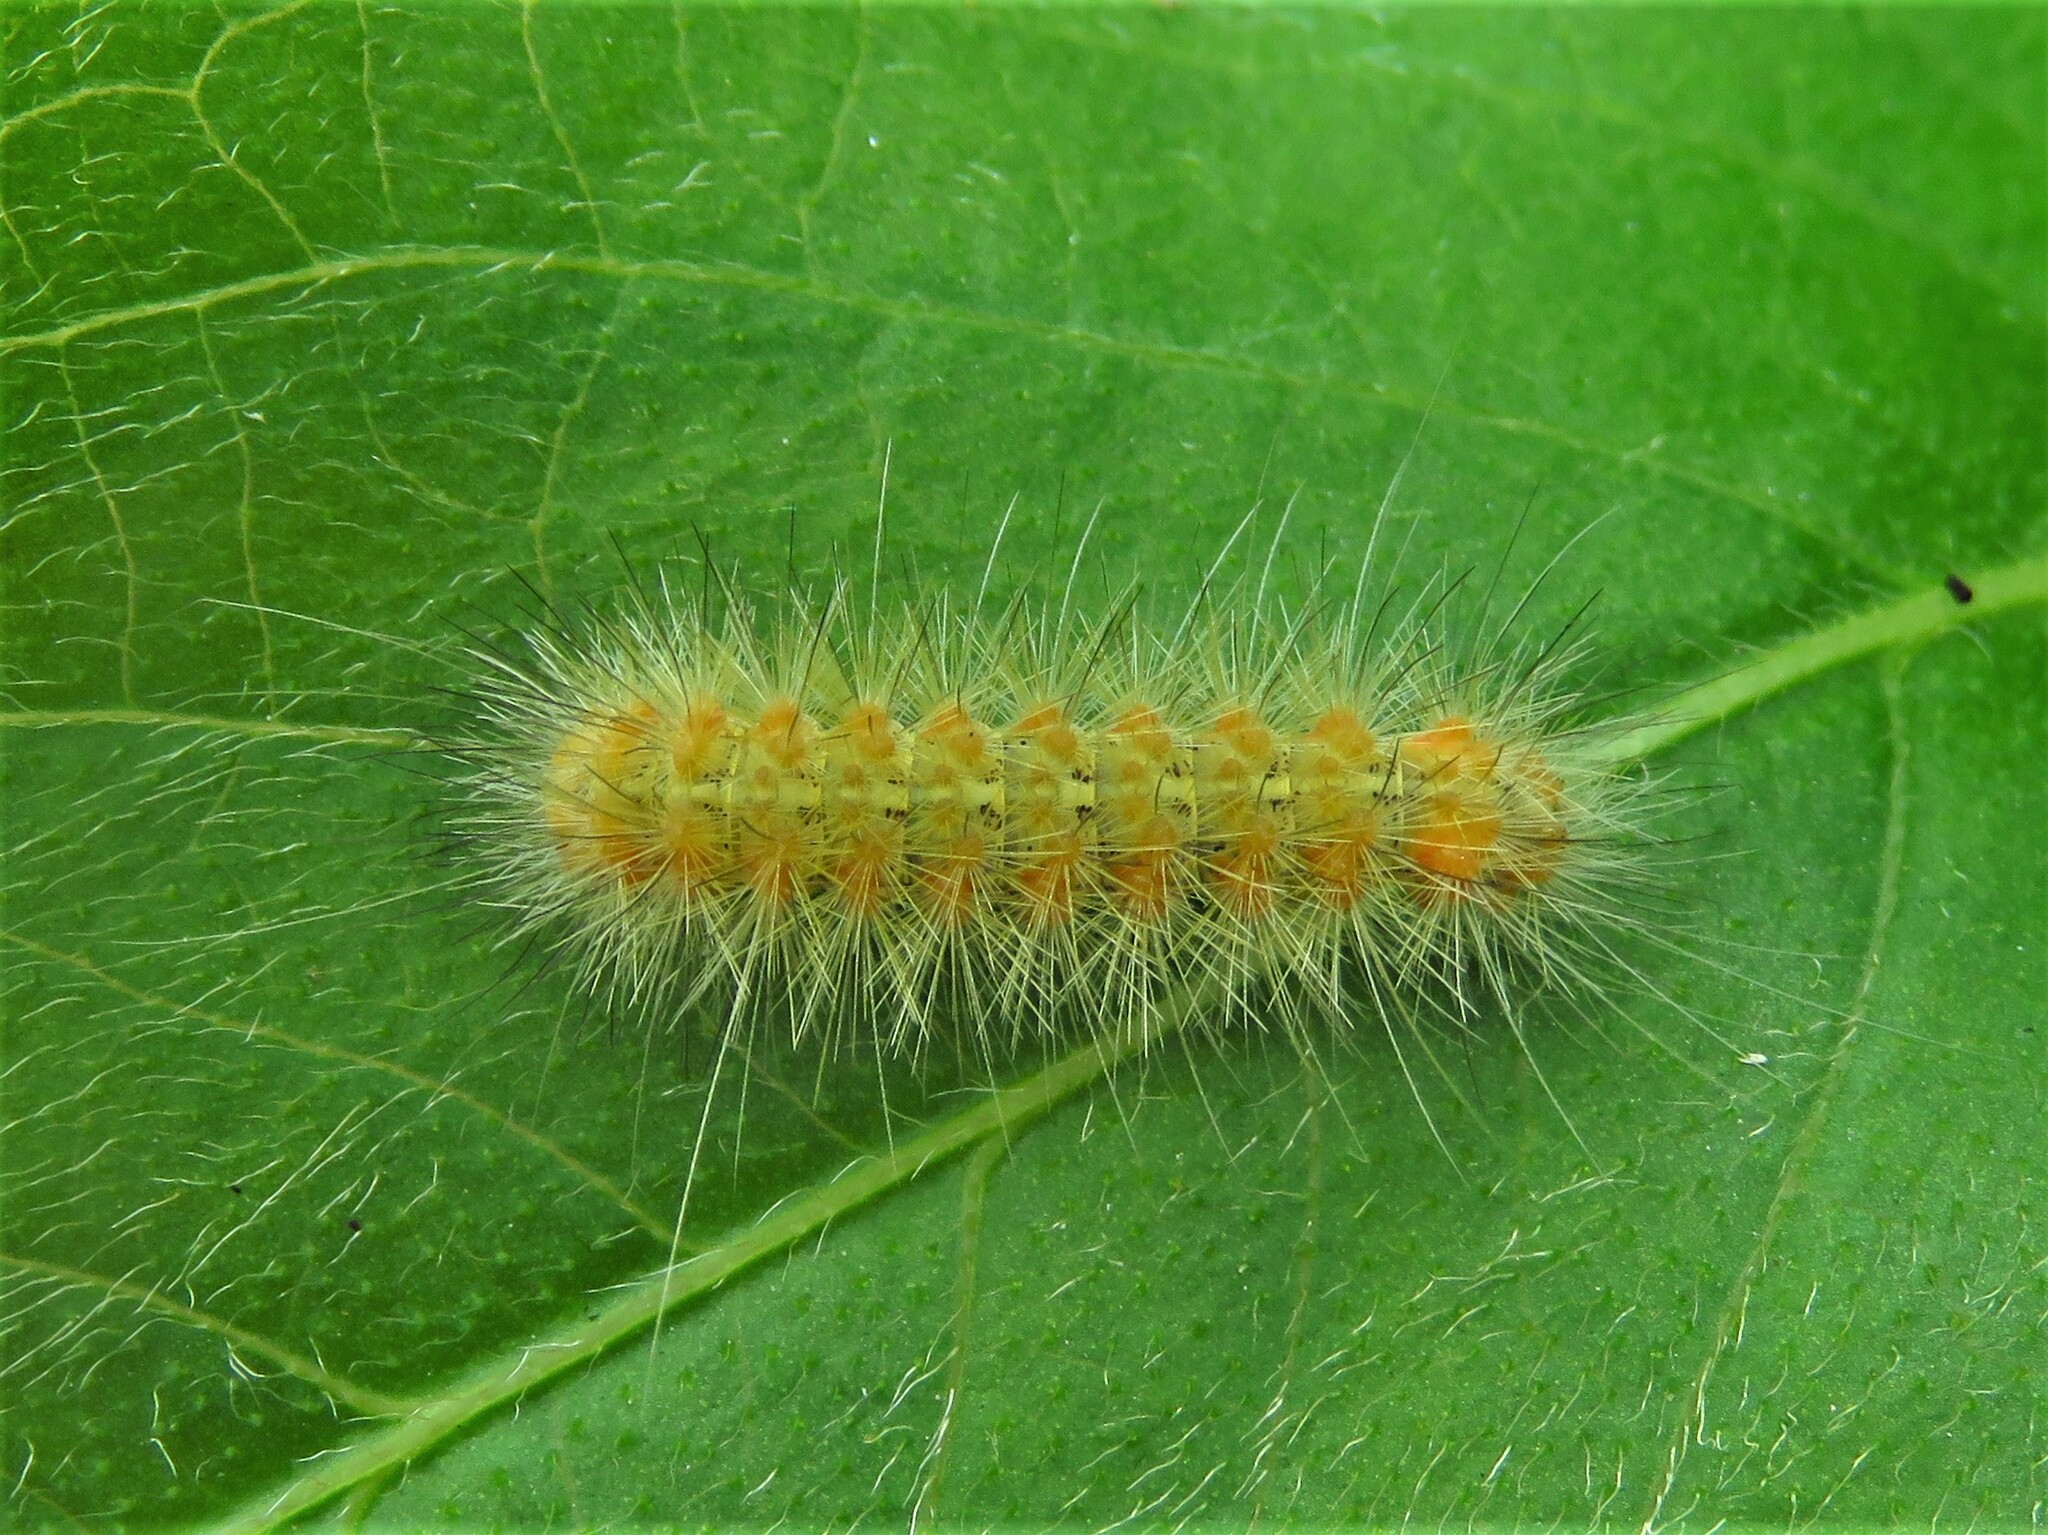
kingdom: Animalia
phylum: Arthropoda
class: Insecta
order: Lepidoptera
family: Erebidae
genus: Estigmene
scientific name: Estigmene acrea
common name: Salt marsh moth
